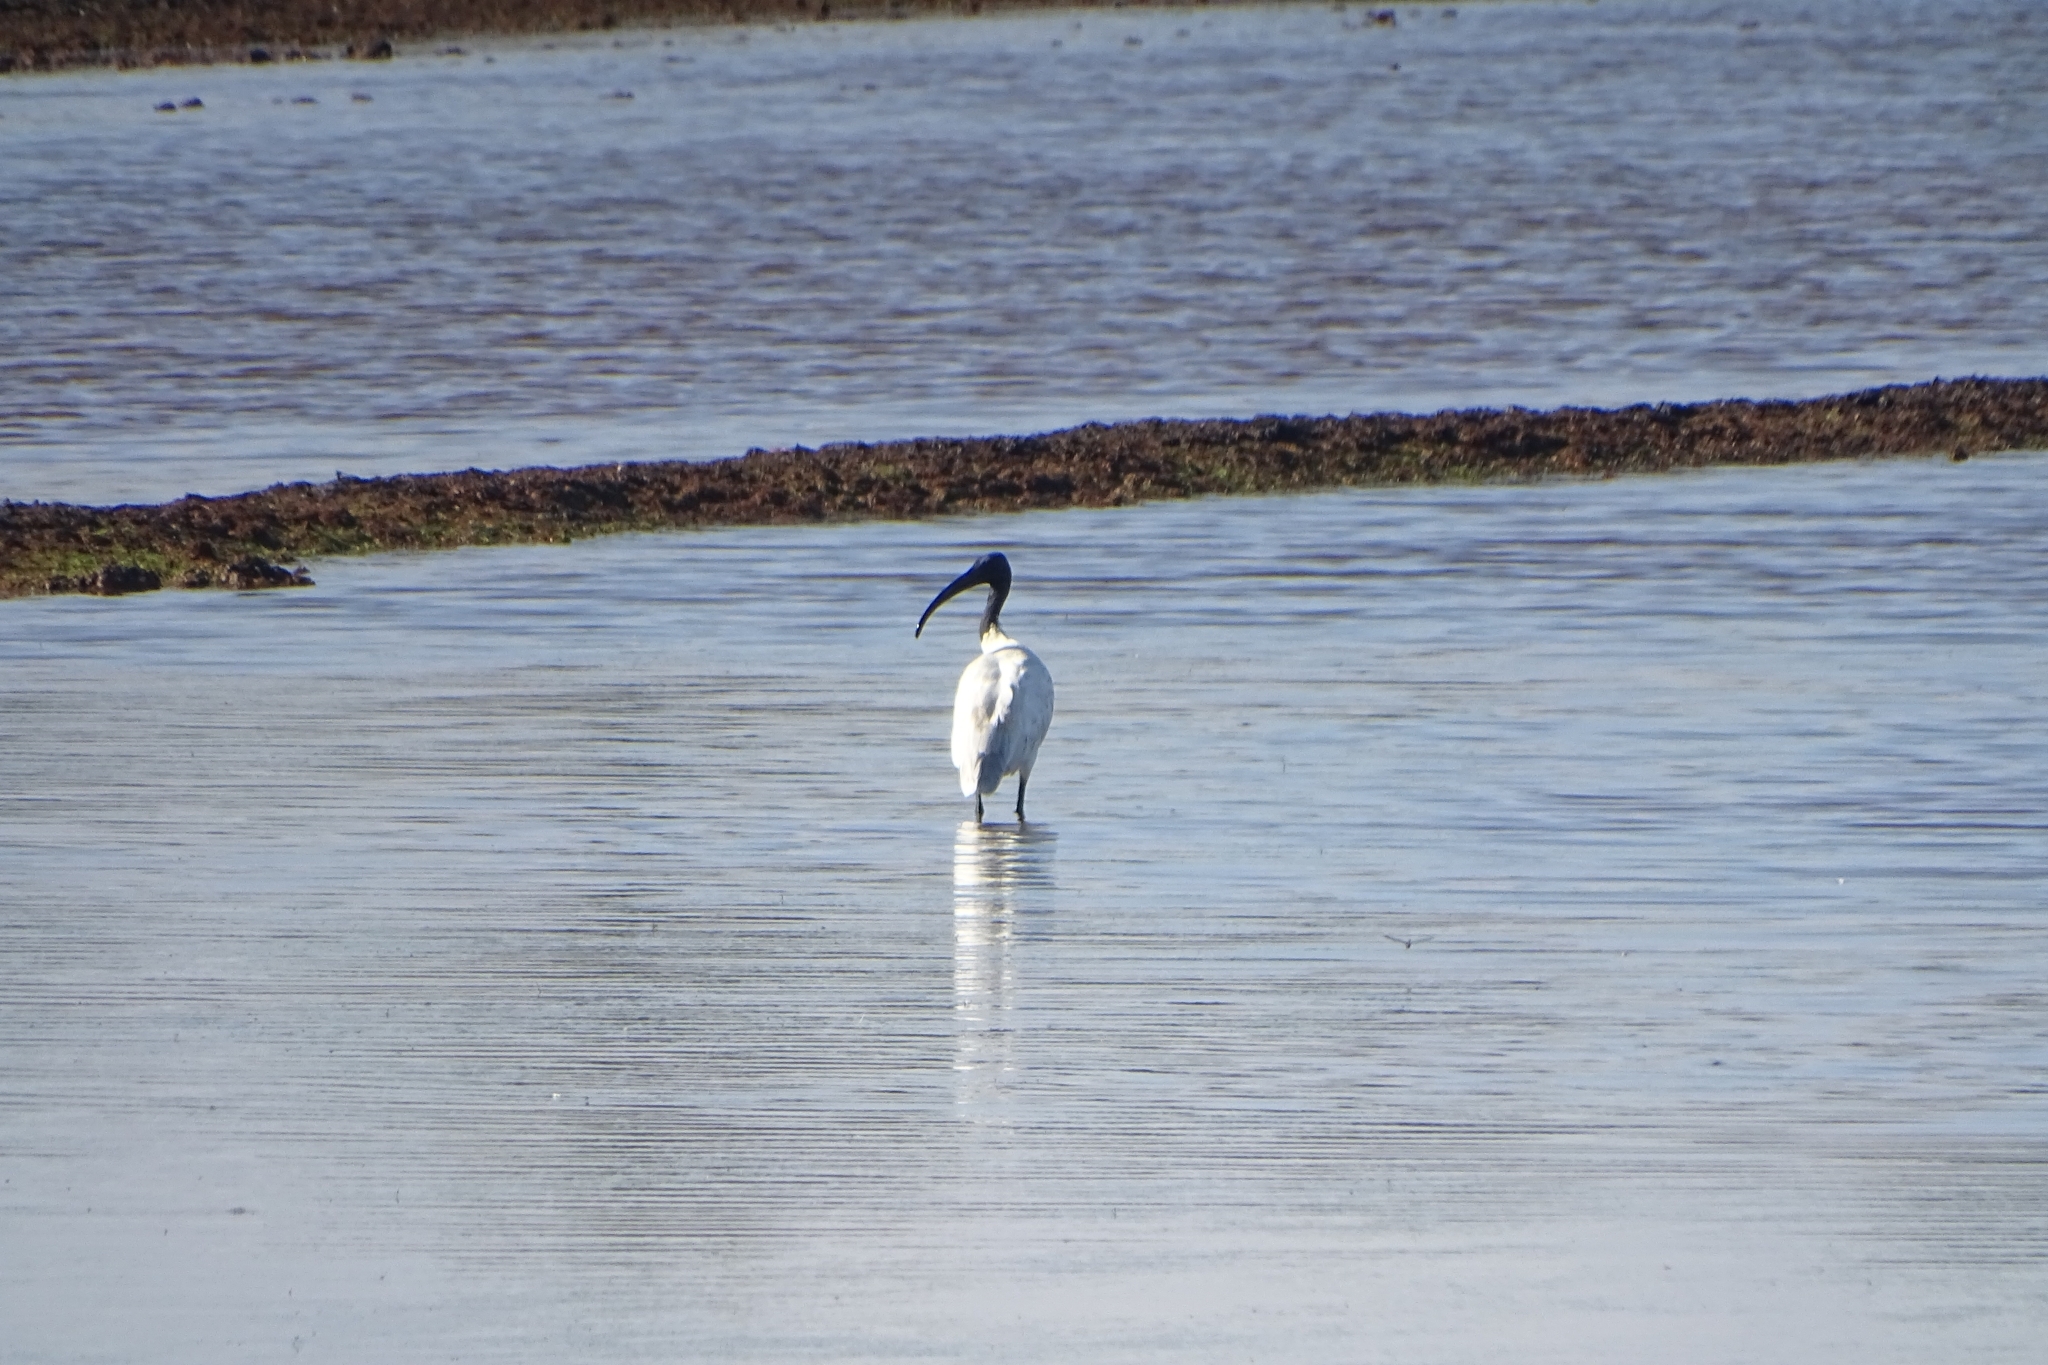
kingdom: Animalia
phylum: Chordata
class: Aves
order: Pelecaniformes
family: Threskiornithidae
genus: Threskiornis
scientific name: Threskiornis melanocephalus
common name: Black-headed ibis
